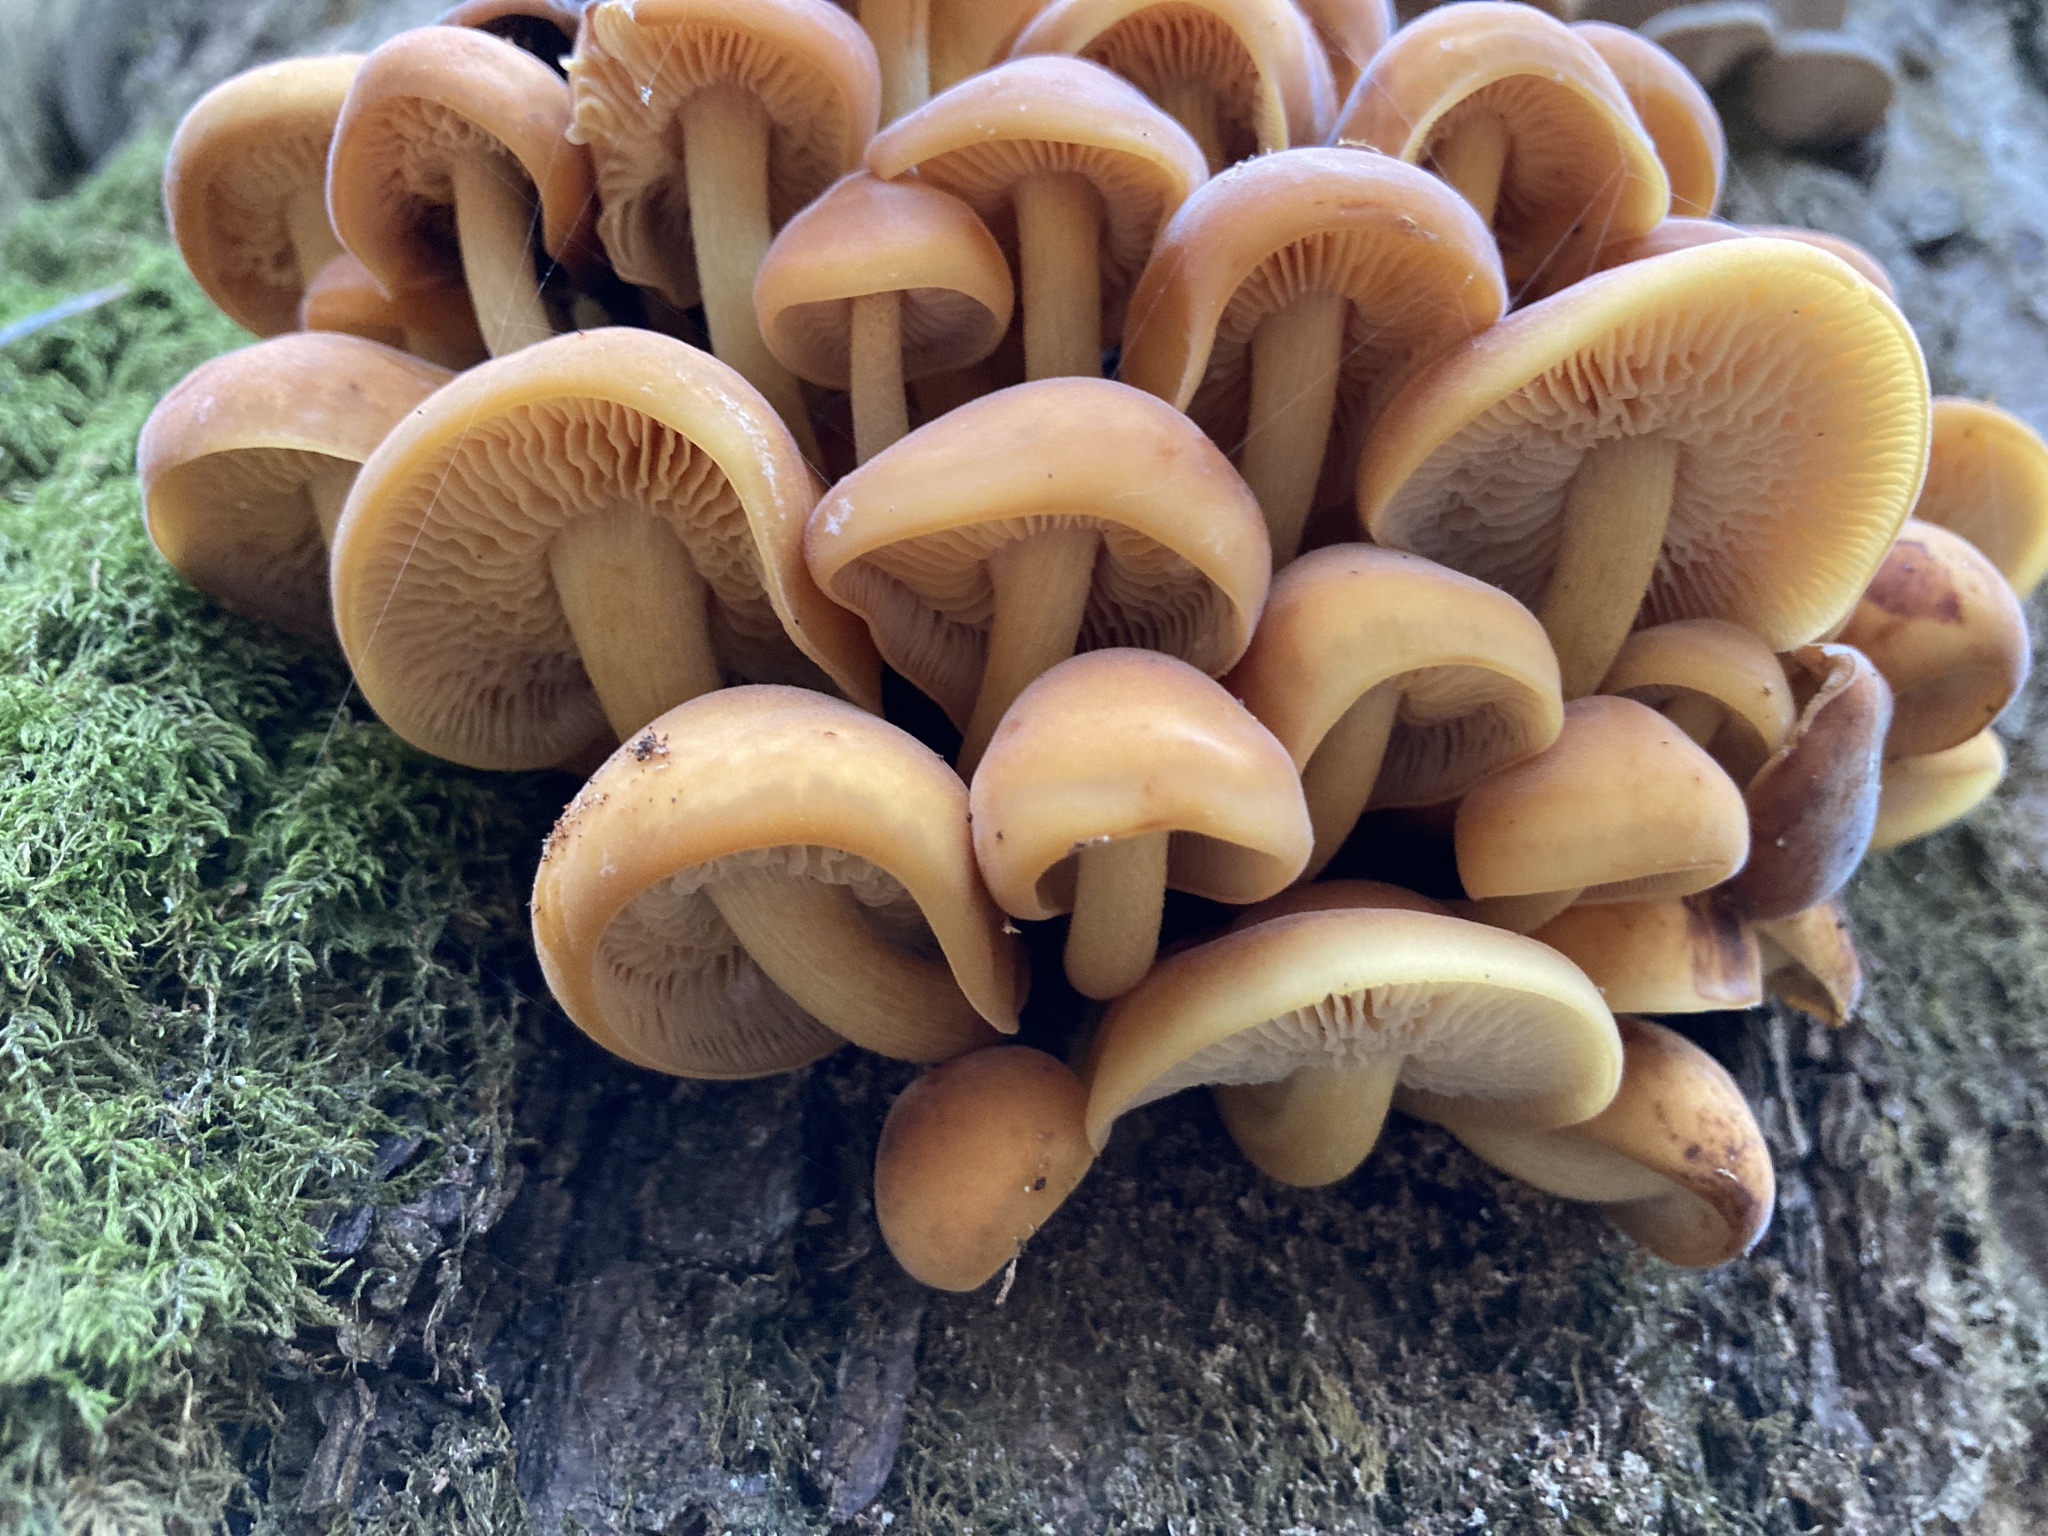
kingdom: Fungi
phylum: Basidiomycota
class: Agaricomycetes
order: Agaricales
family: Physalacriaceae
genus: Flammulina
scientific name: Flammulina
